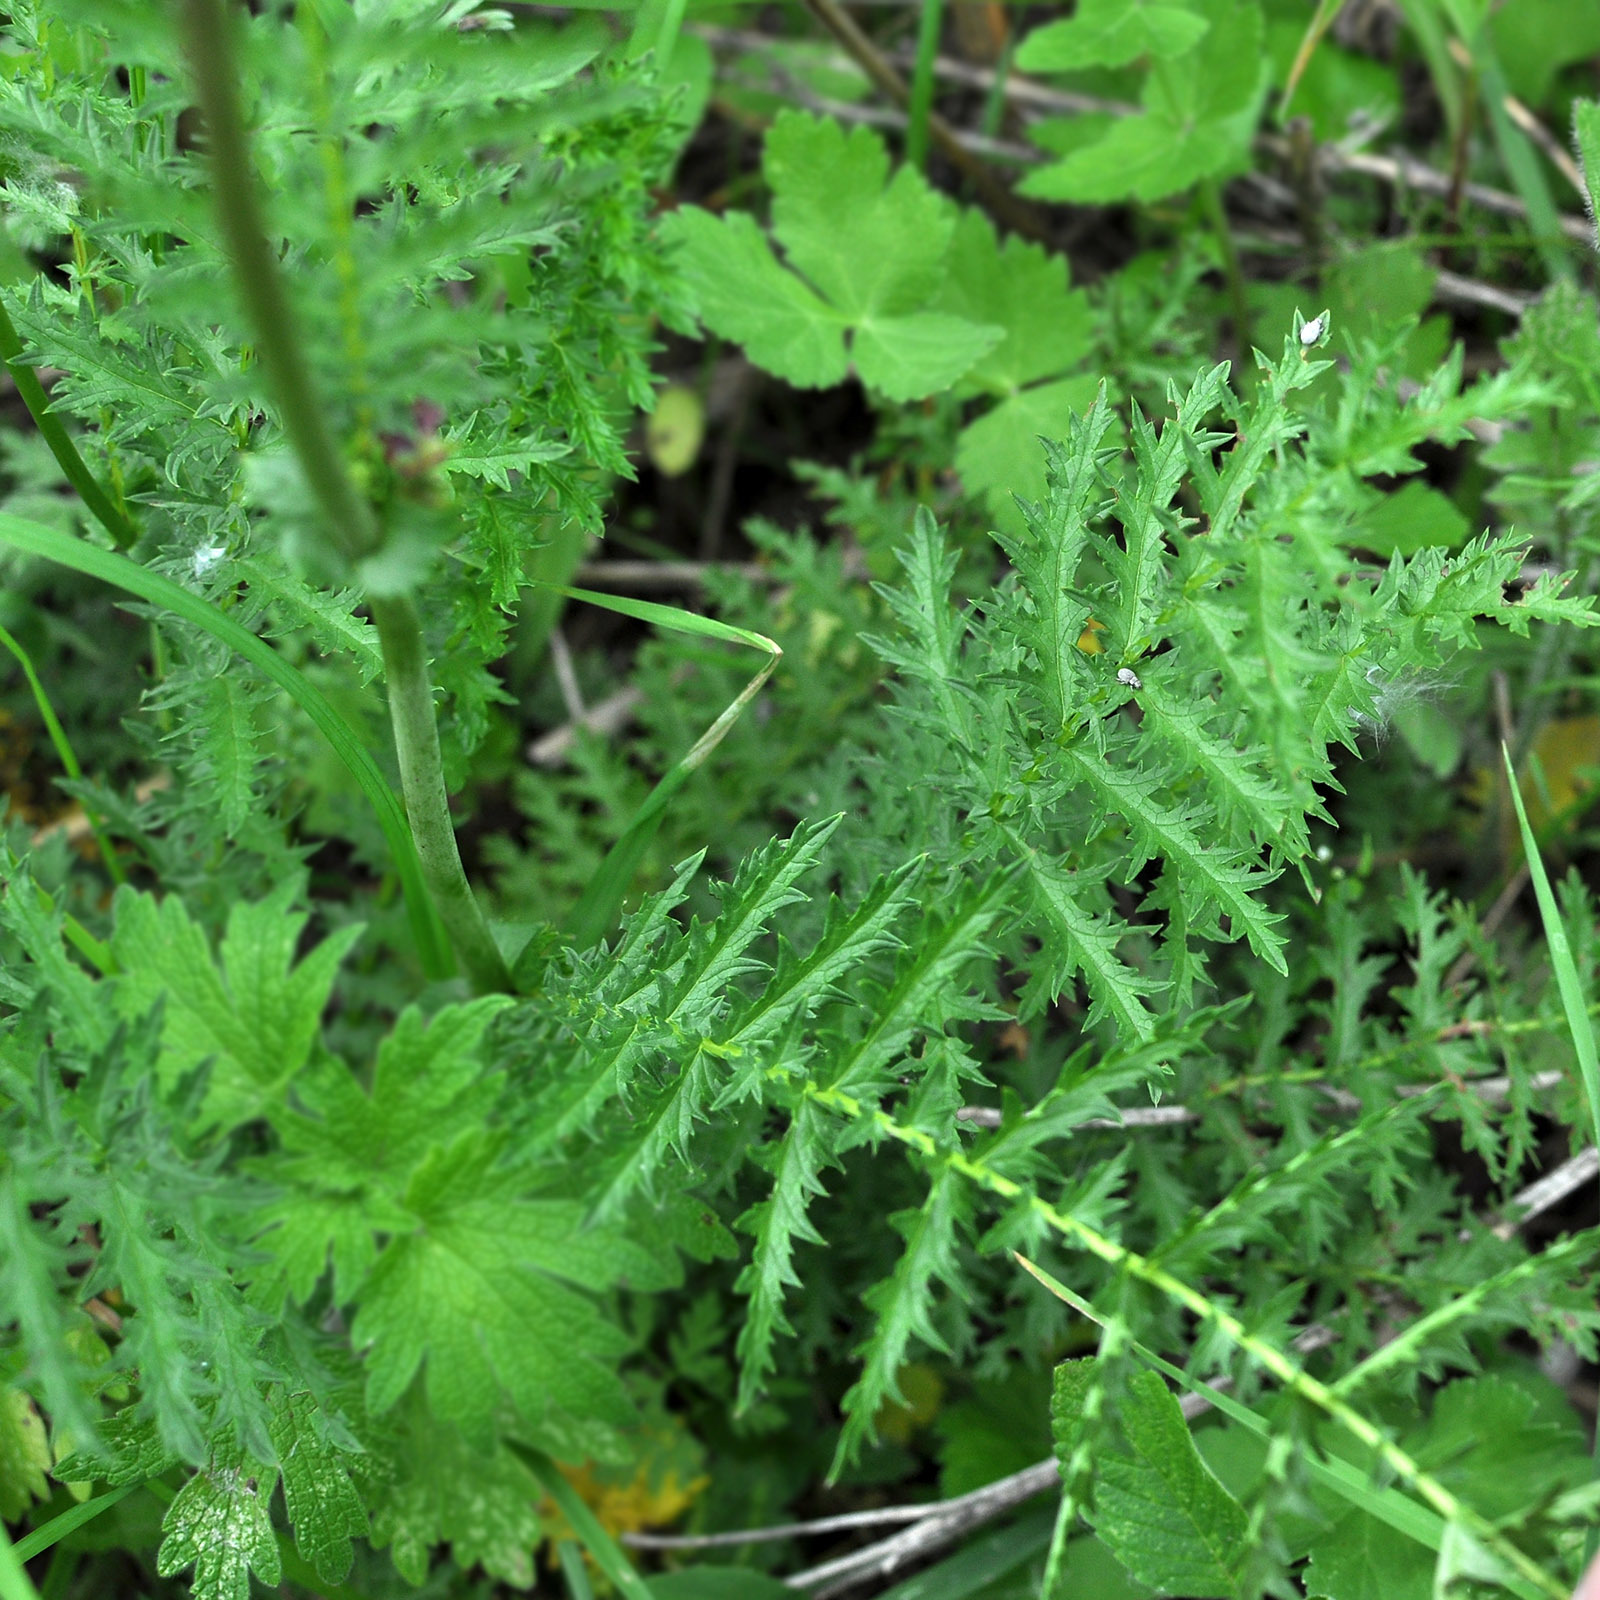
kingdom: Plantae
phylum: Tracheophyta
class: Magnoliopsida
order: Rosales
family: Rosaceae
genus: Filipendula
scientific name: Filipendula vulgaris
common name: Dropwort
